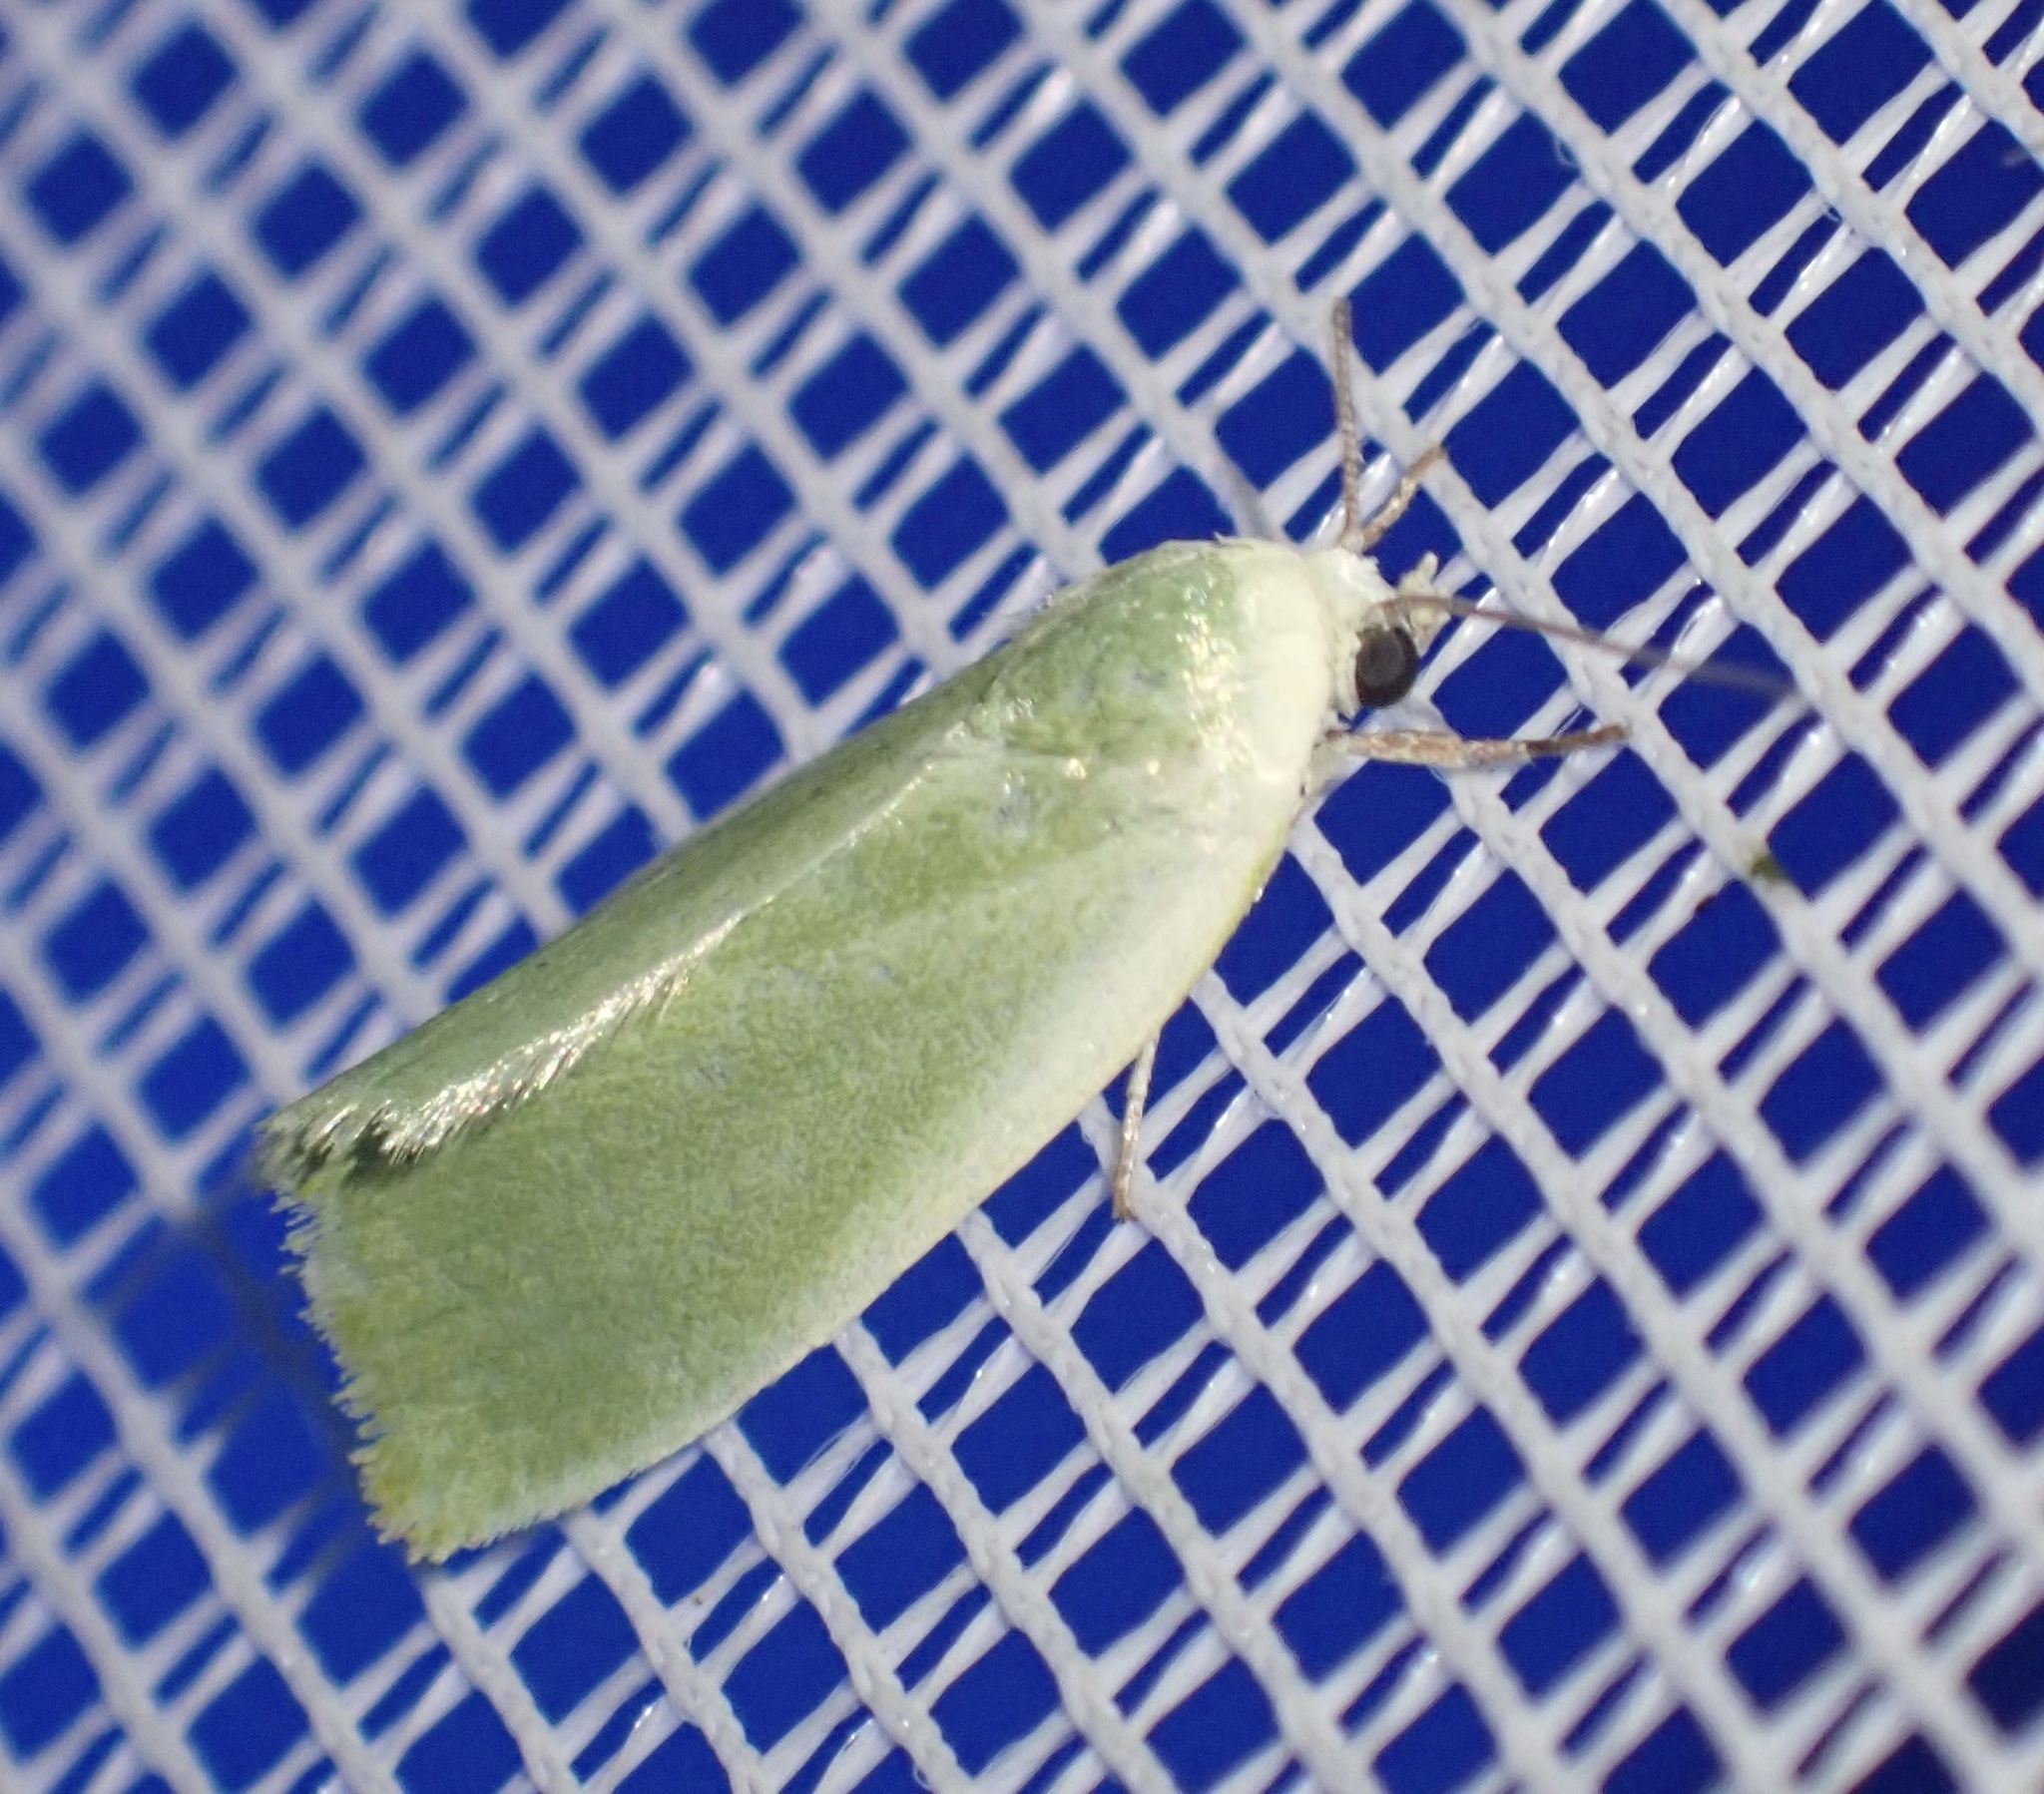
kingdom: Animalia
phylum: Arthropoda
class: Insecta
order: Lepidoptera
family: Nolidae
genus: Earias
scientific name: Earias clorana
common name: Cream-bordered green pea
